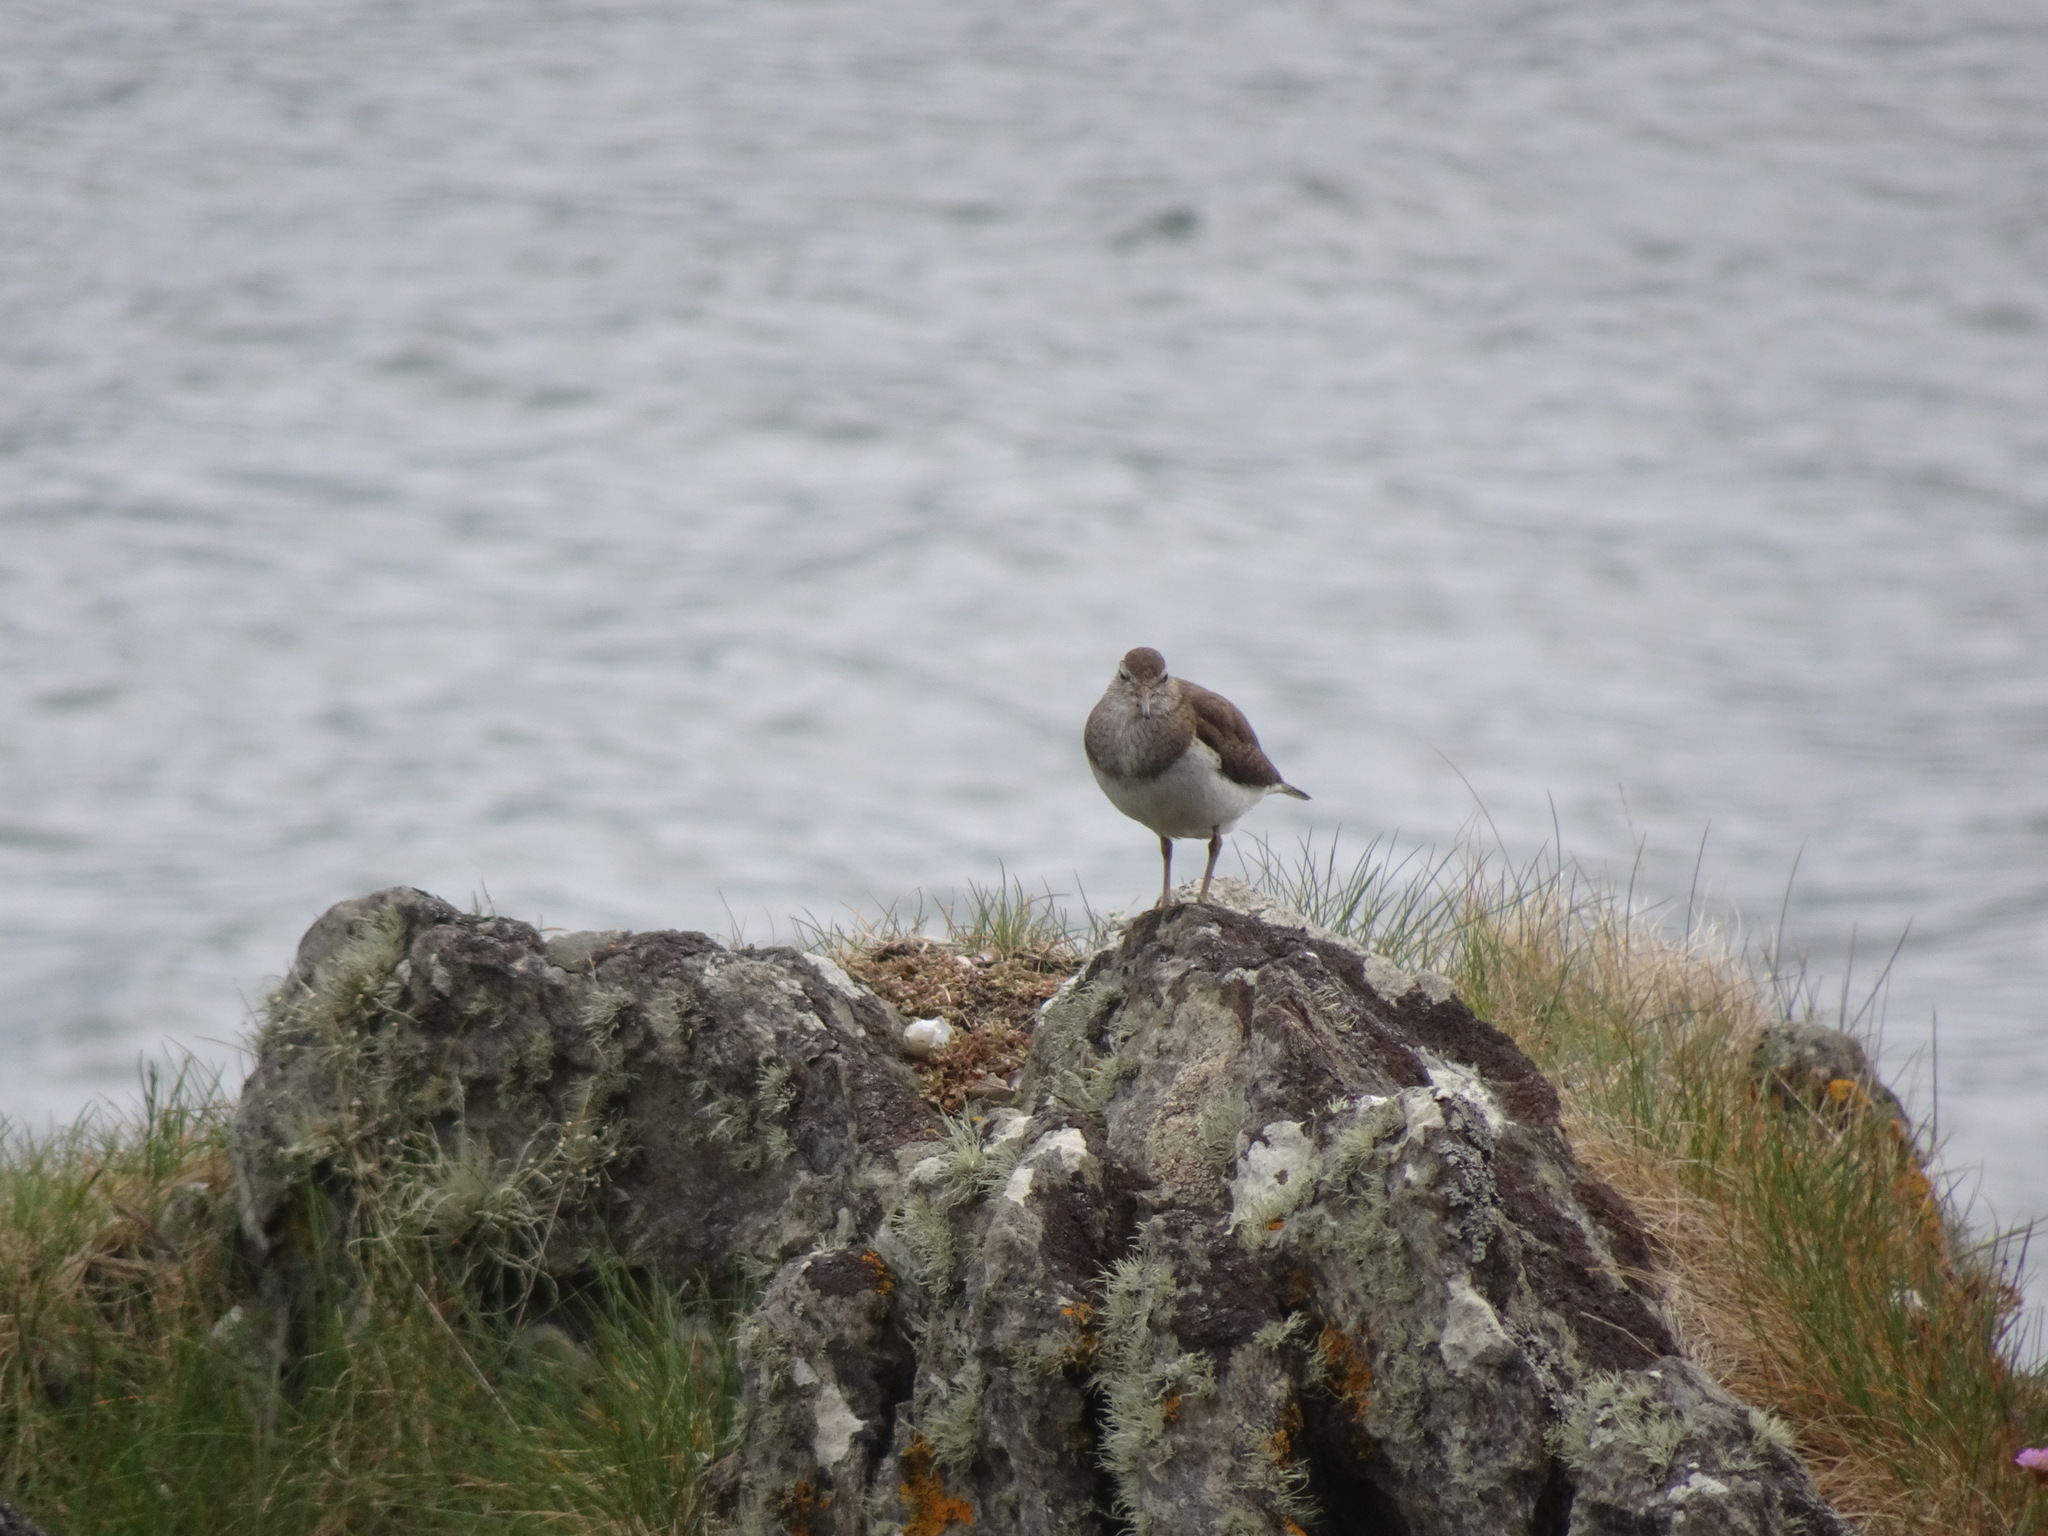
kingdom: Animalia
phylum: Chordata
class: Aves
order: Charadriiformes
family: Scolopacidae
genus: Actitis
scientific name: Actitis hypoleucos
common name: Common sandpiper
